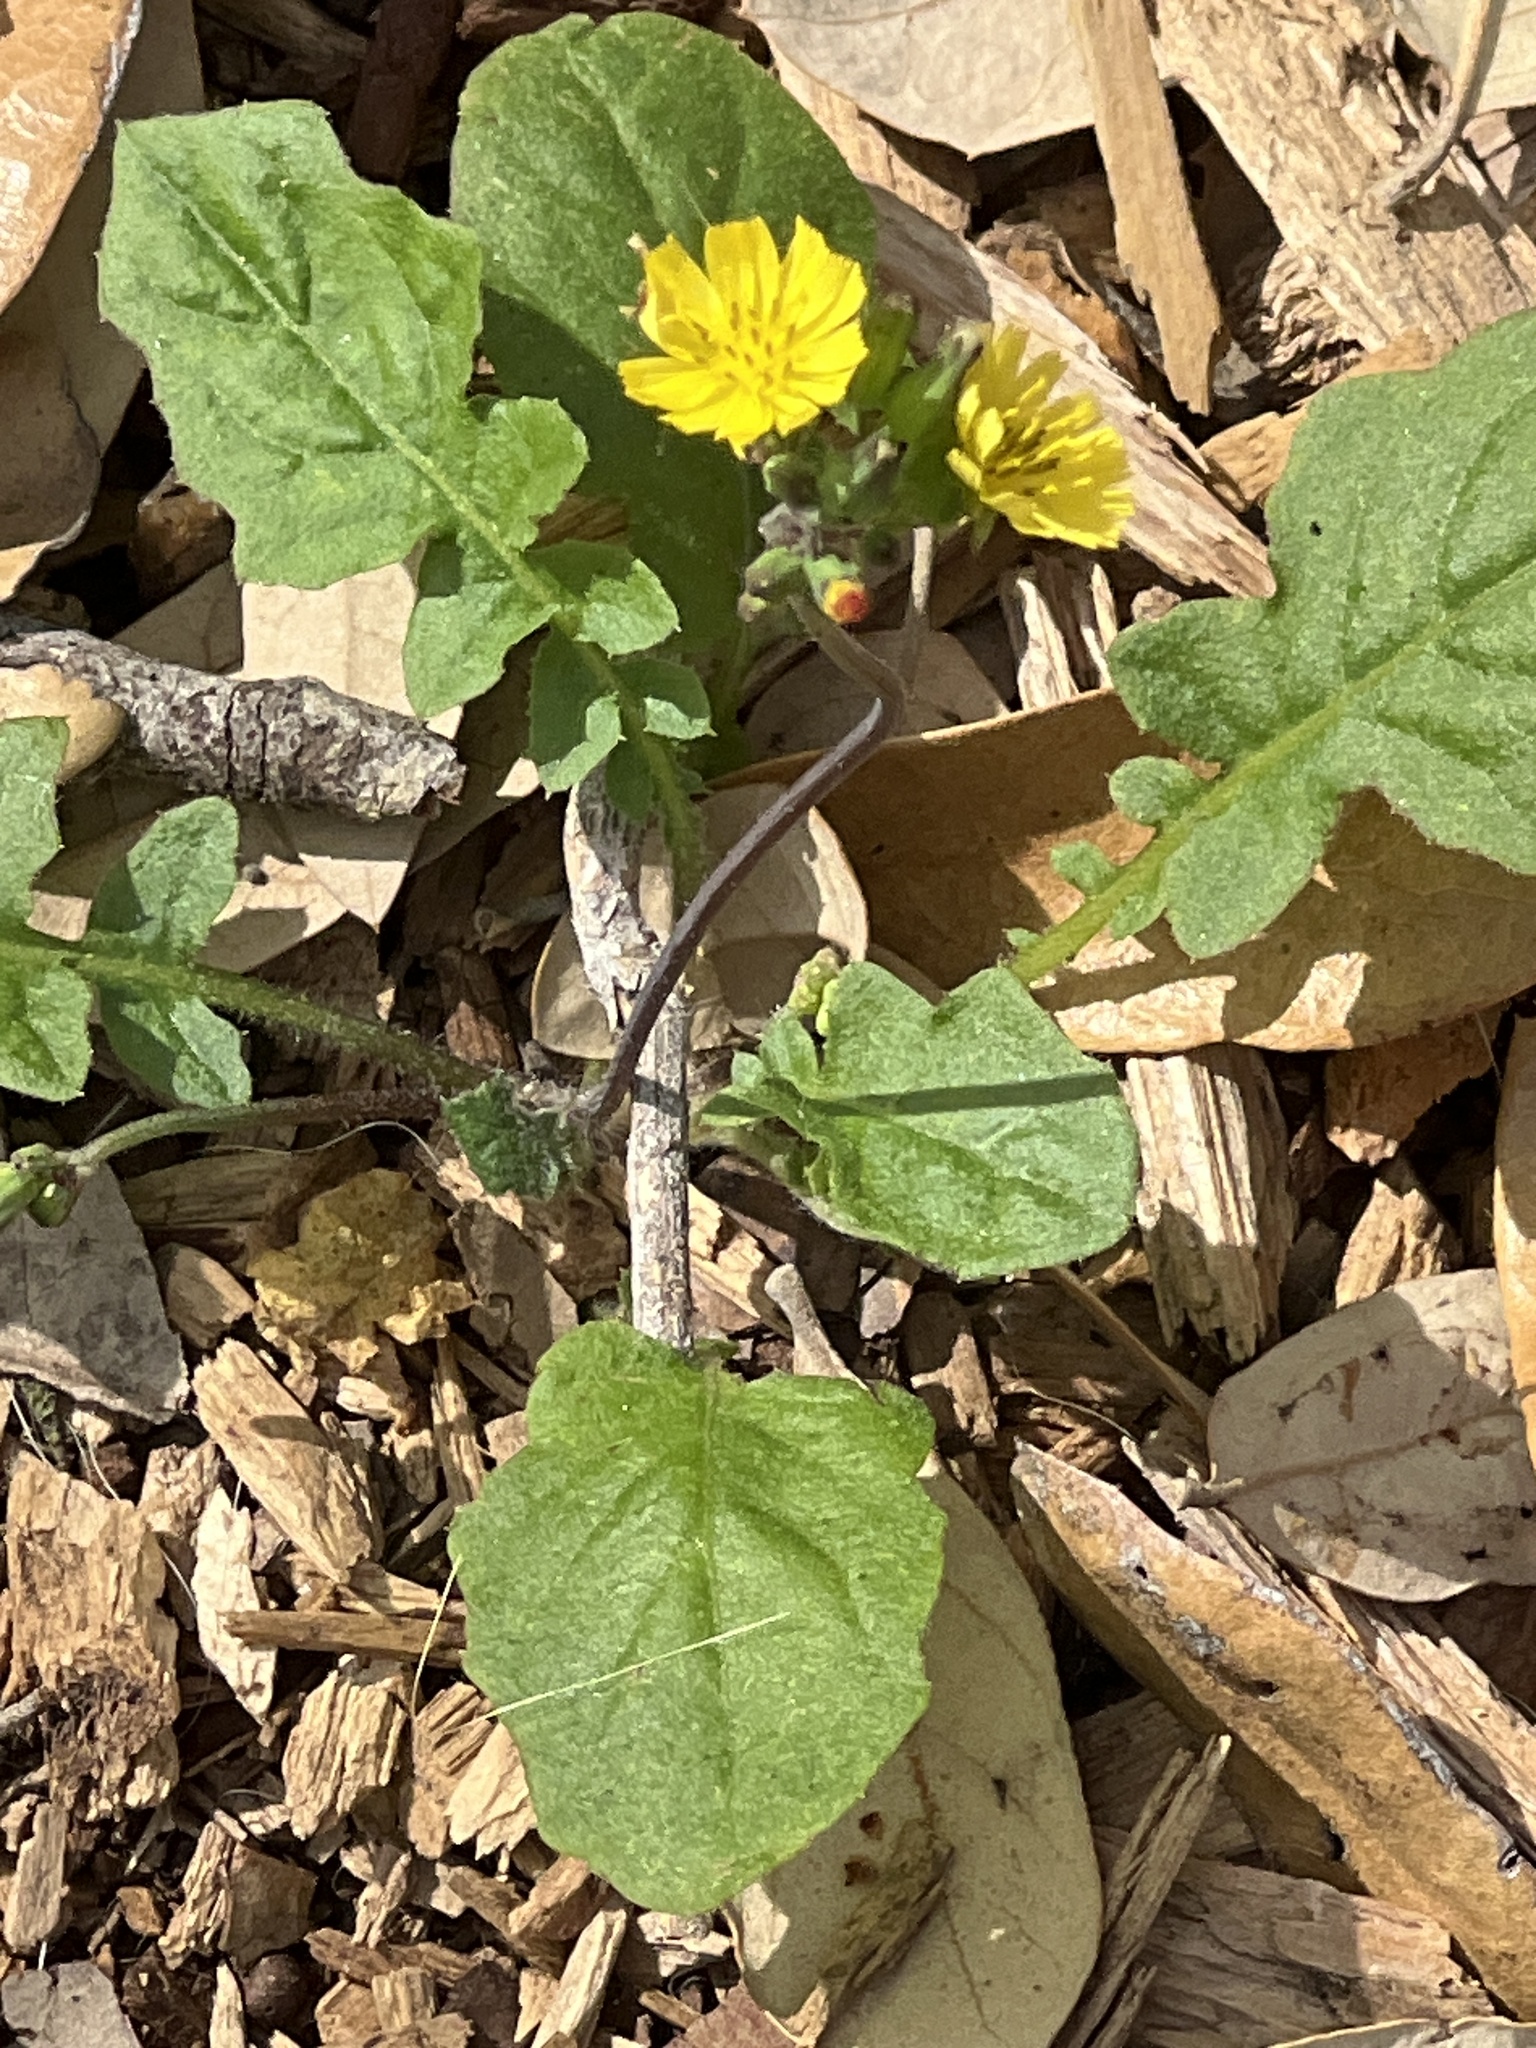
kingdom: Plantae
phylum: Tracheophyta
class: Magnoliopsida
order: Asterales
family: Asteraceae
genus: Youngia
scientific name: Youngia japonica
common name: Oriental false hawksbeard
